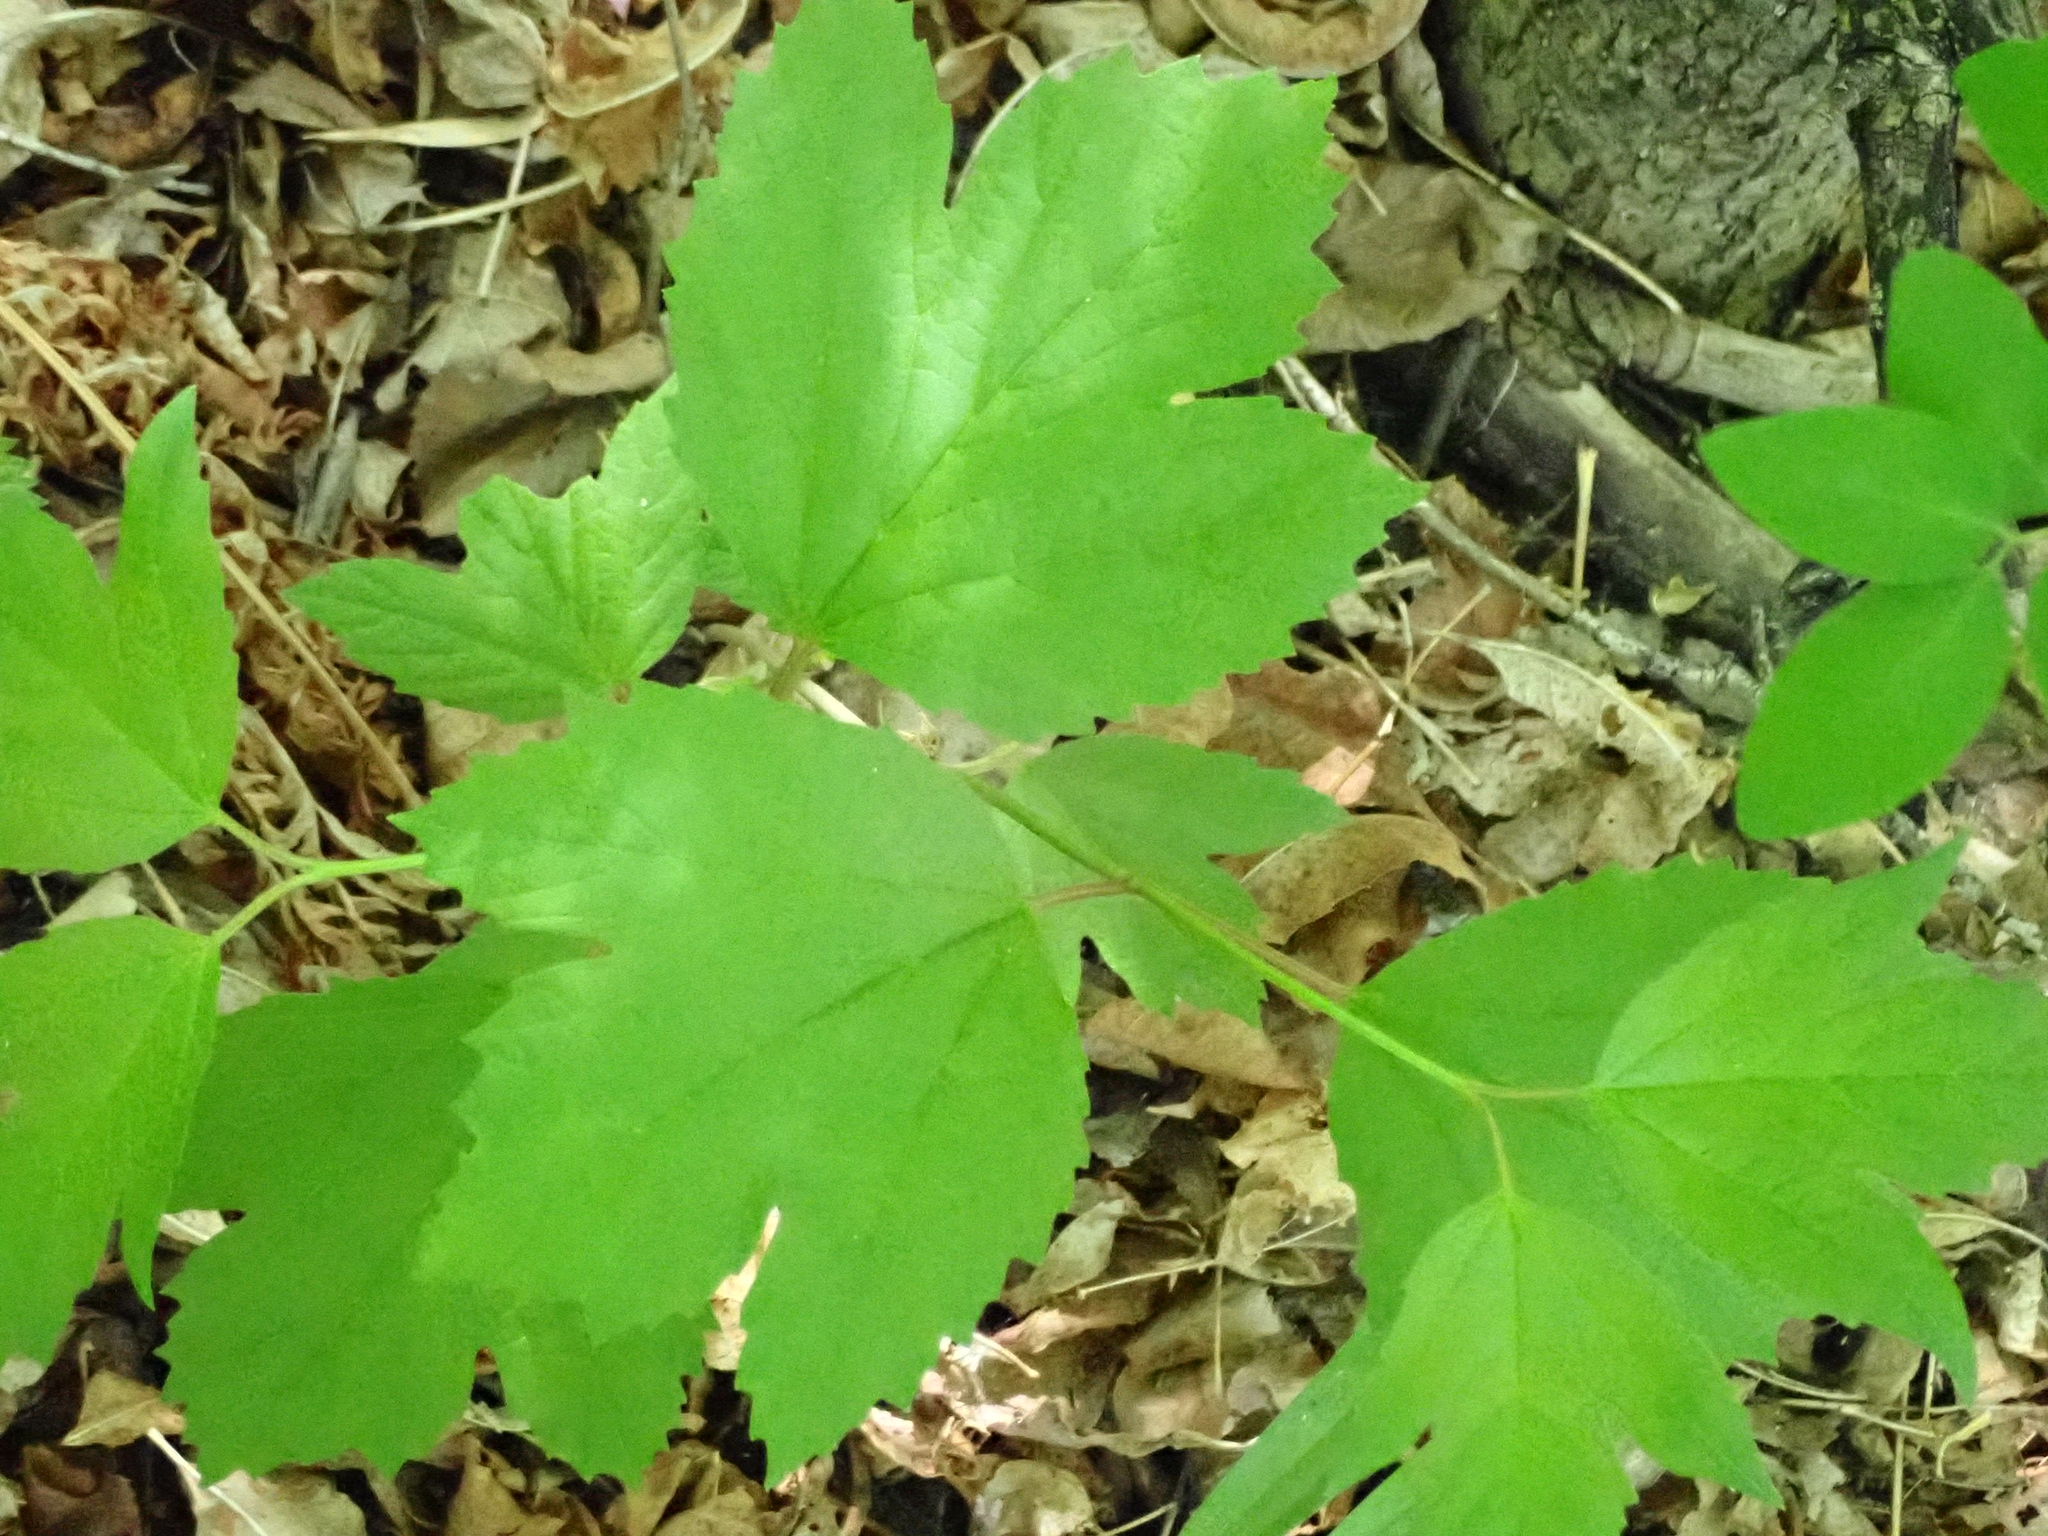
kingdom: Plantae
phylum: Tracheophyta
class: Magnoliopsida
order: Dipsacales
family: Viburnaceae
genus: Viburnum
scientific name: Viburnum trilobum
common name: American cranberrybush
